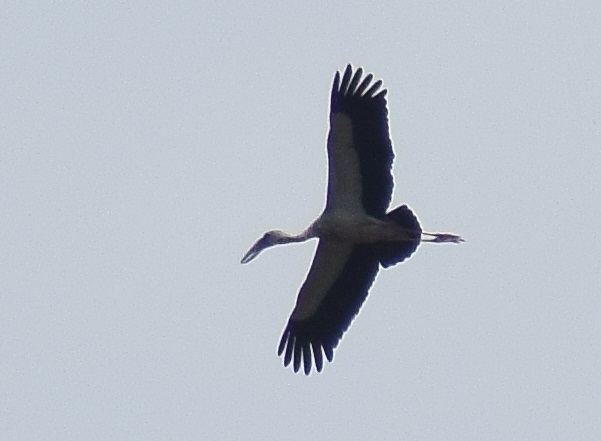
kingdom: Animalia
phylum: Chordata
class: Aves
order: Ciconiiformes
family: Ciconiidae
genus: Anastomus
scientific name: Anastomus oscitans
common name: Asian openbill
